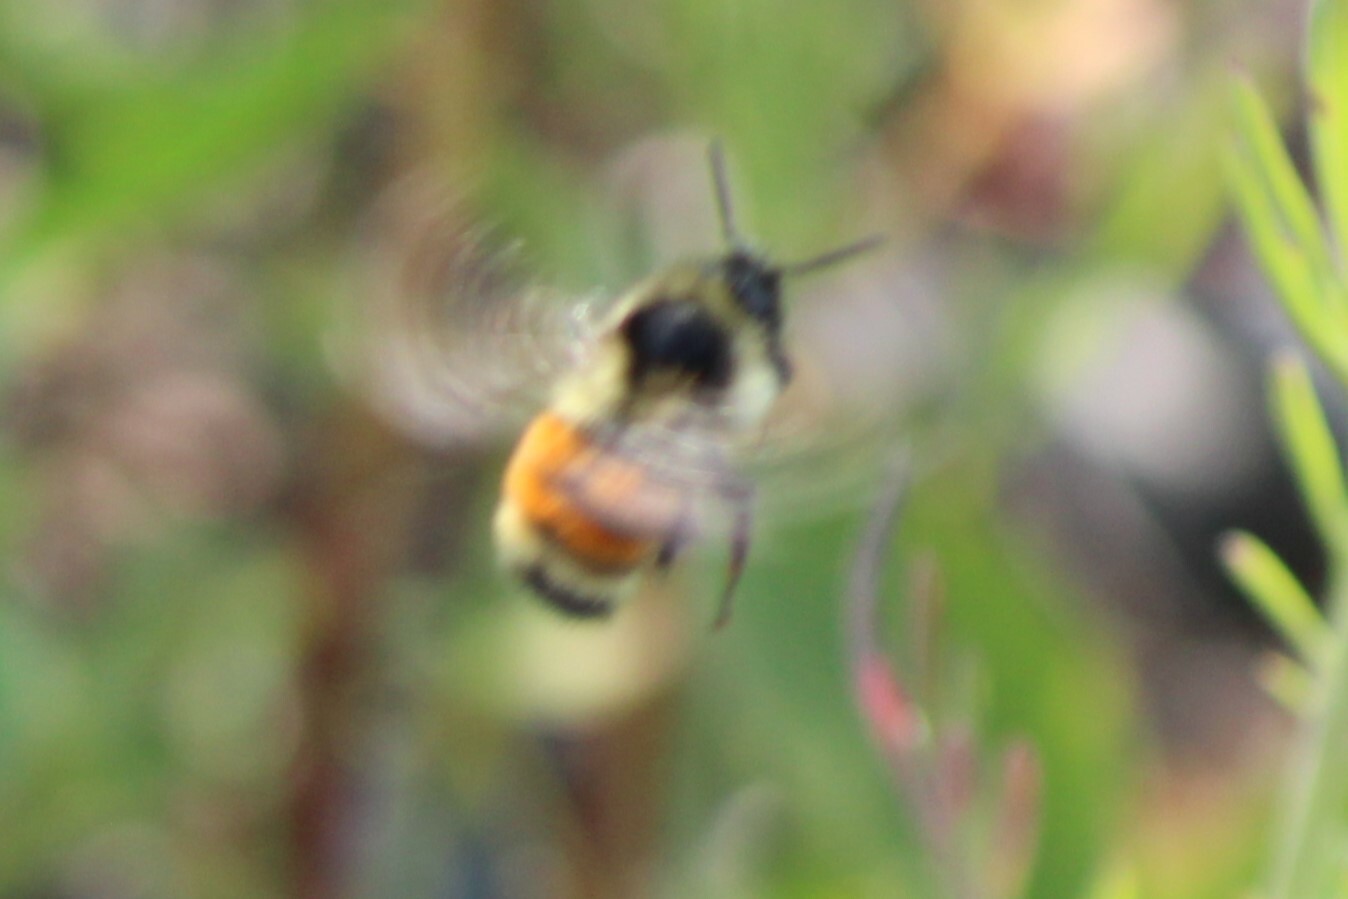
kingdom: Animalia
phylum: Arthropoda
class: Insecta
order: Hymenoptera
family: Apidae
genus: Bombus
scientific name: Bombus ternarius
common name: Tri-colored bumble bee
